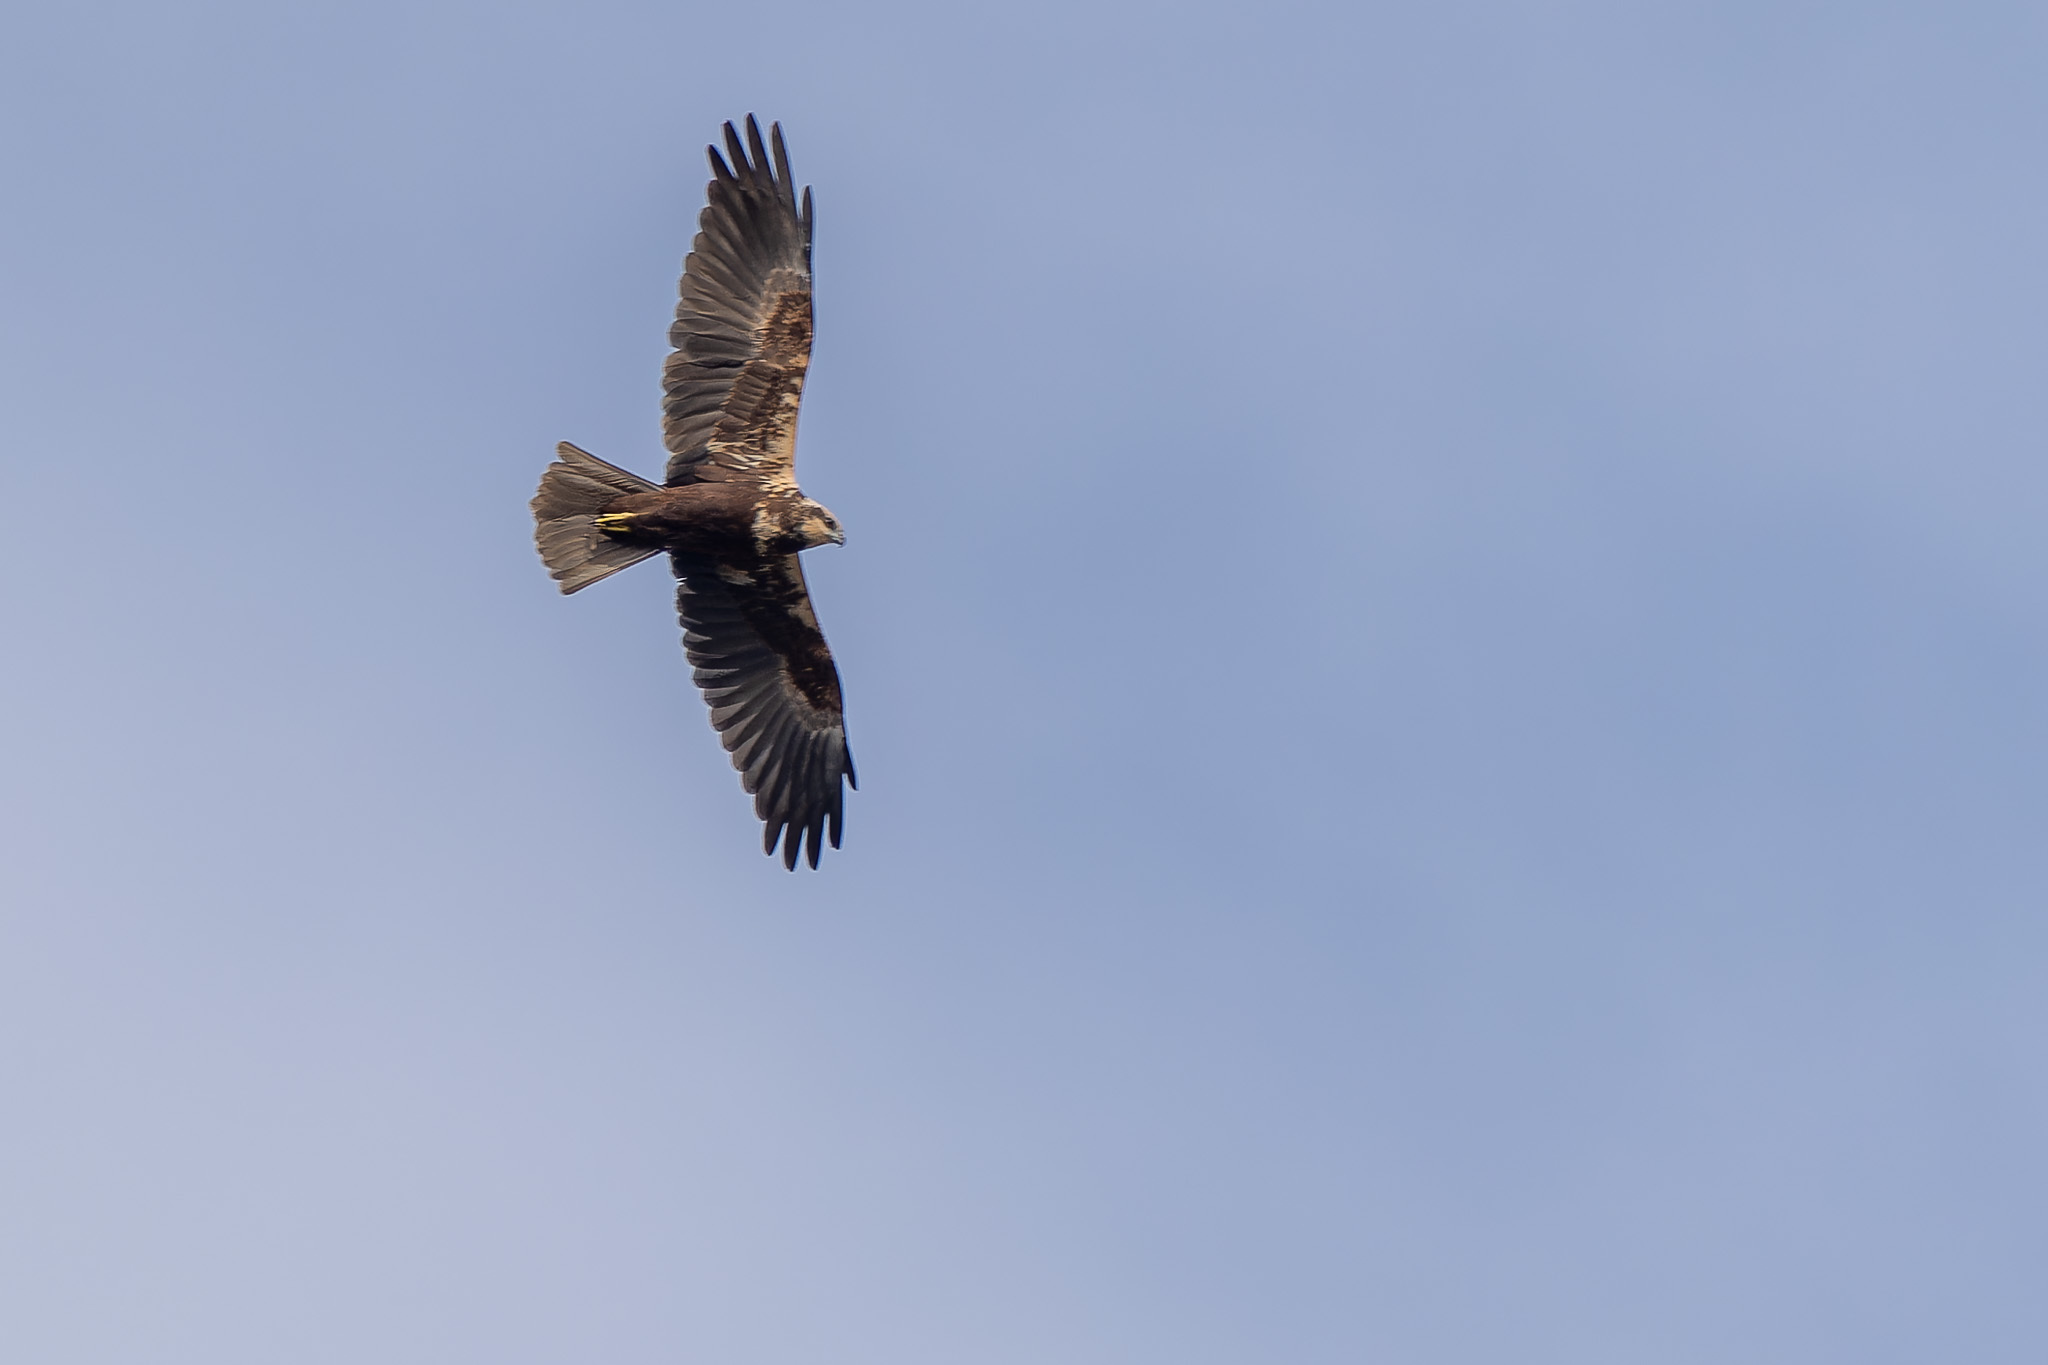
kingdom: Animalia
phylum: Chordata
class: Aves
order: Accipitriformes
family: Accipitridae
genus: Circus
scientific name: Circus aeruginosus
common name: Western marsh harrier
